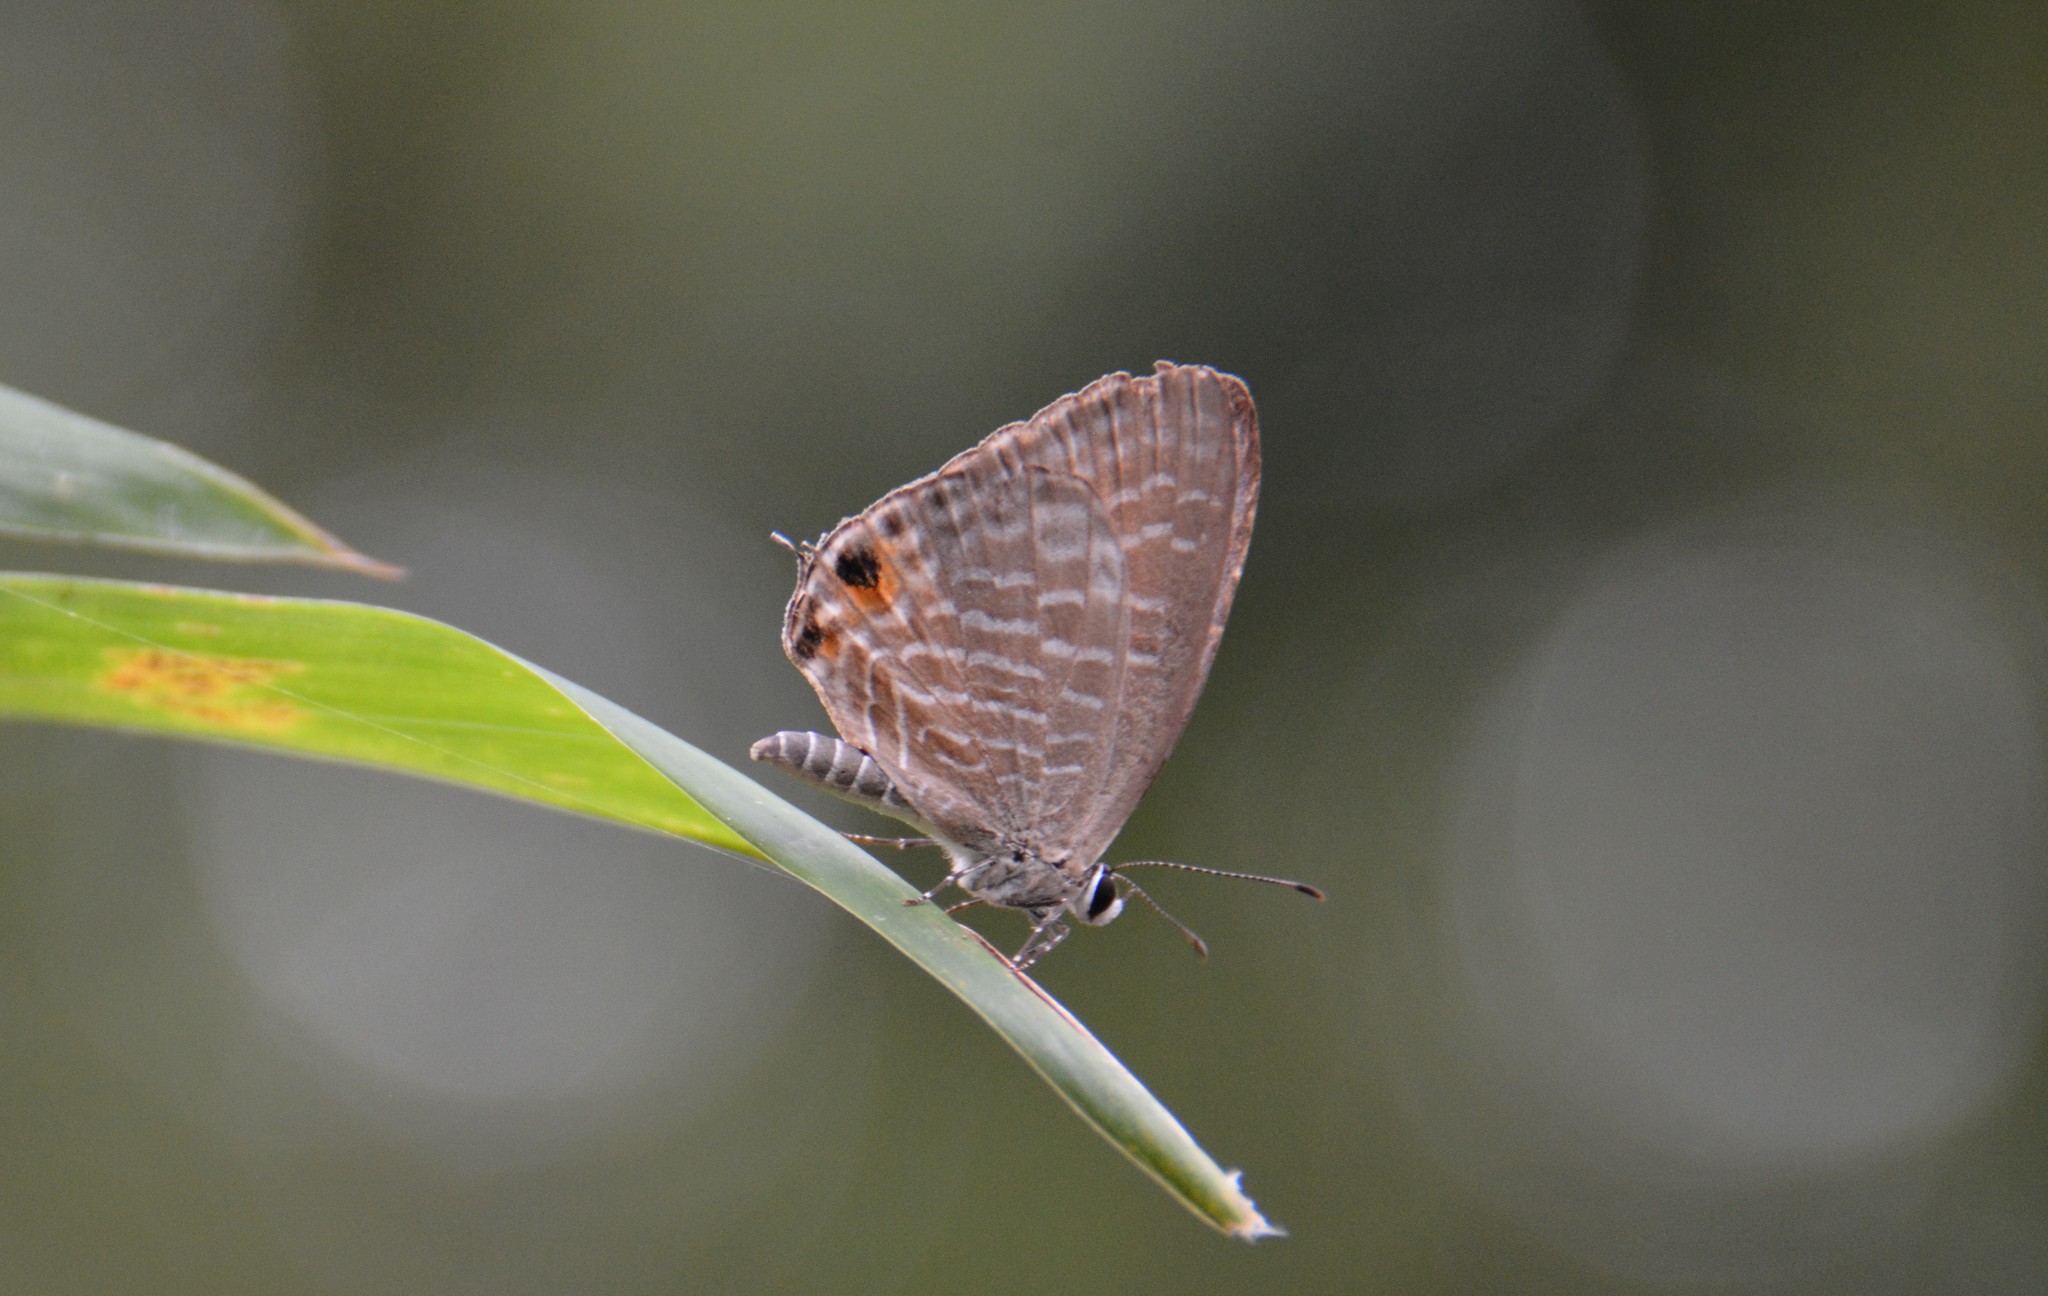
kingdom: Animalia
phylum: Arthropoda
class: Insecta
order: Lepidoptera
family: Lycaenidae
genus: Jamides
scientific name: Jamides alecto
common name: Metallic cerulean
